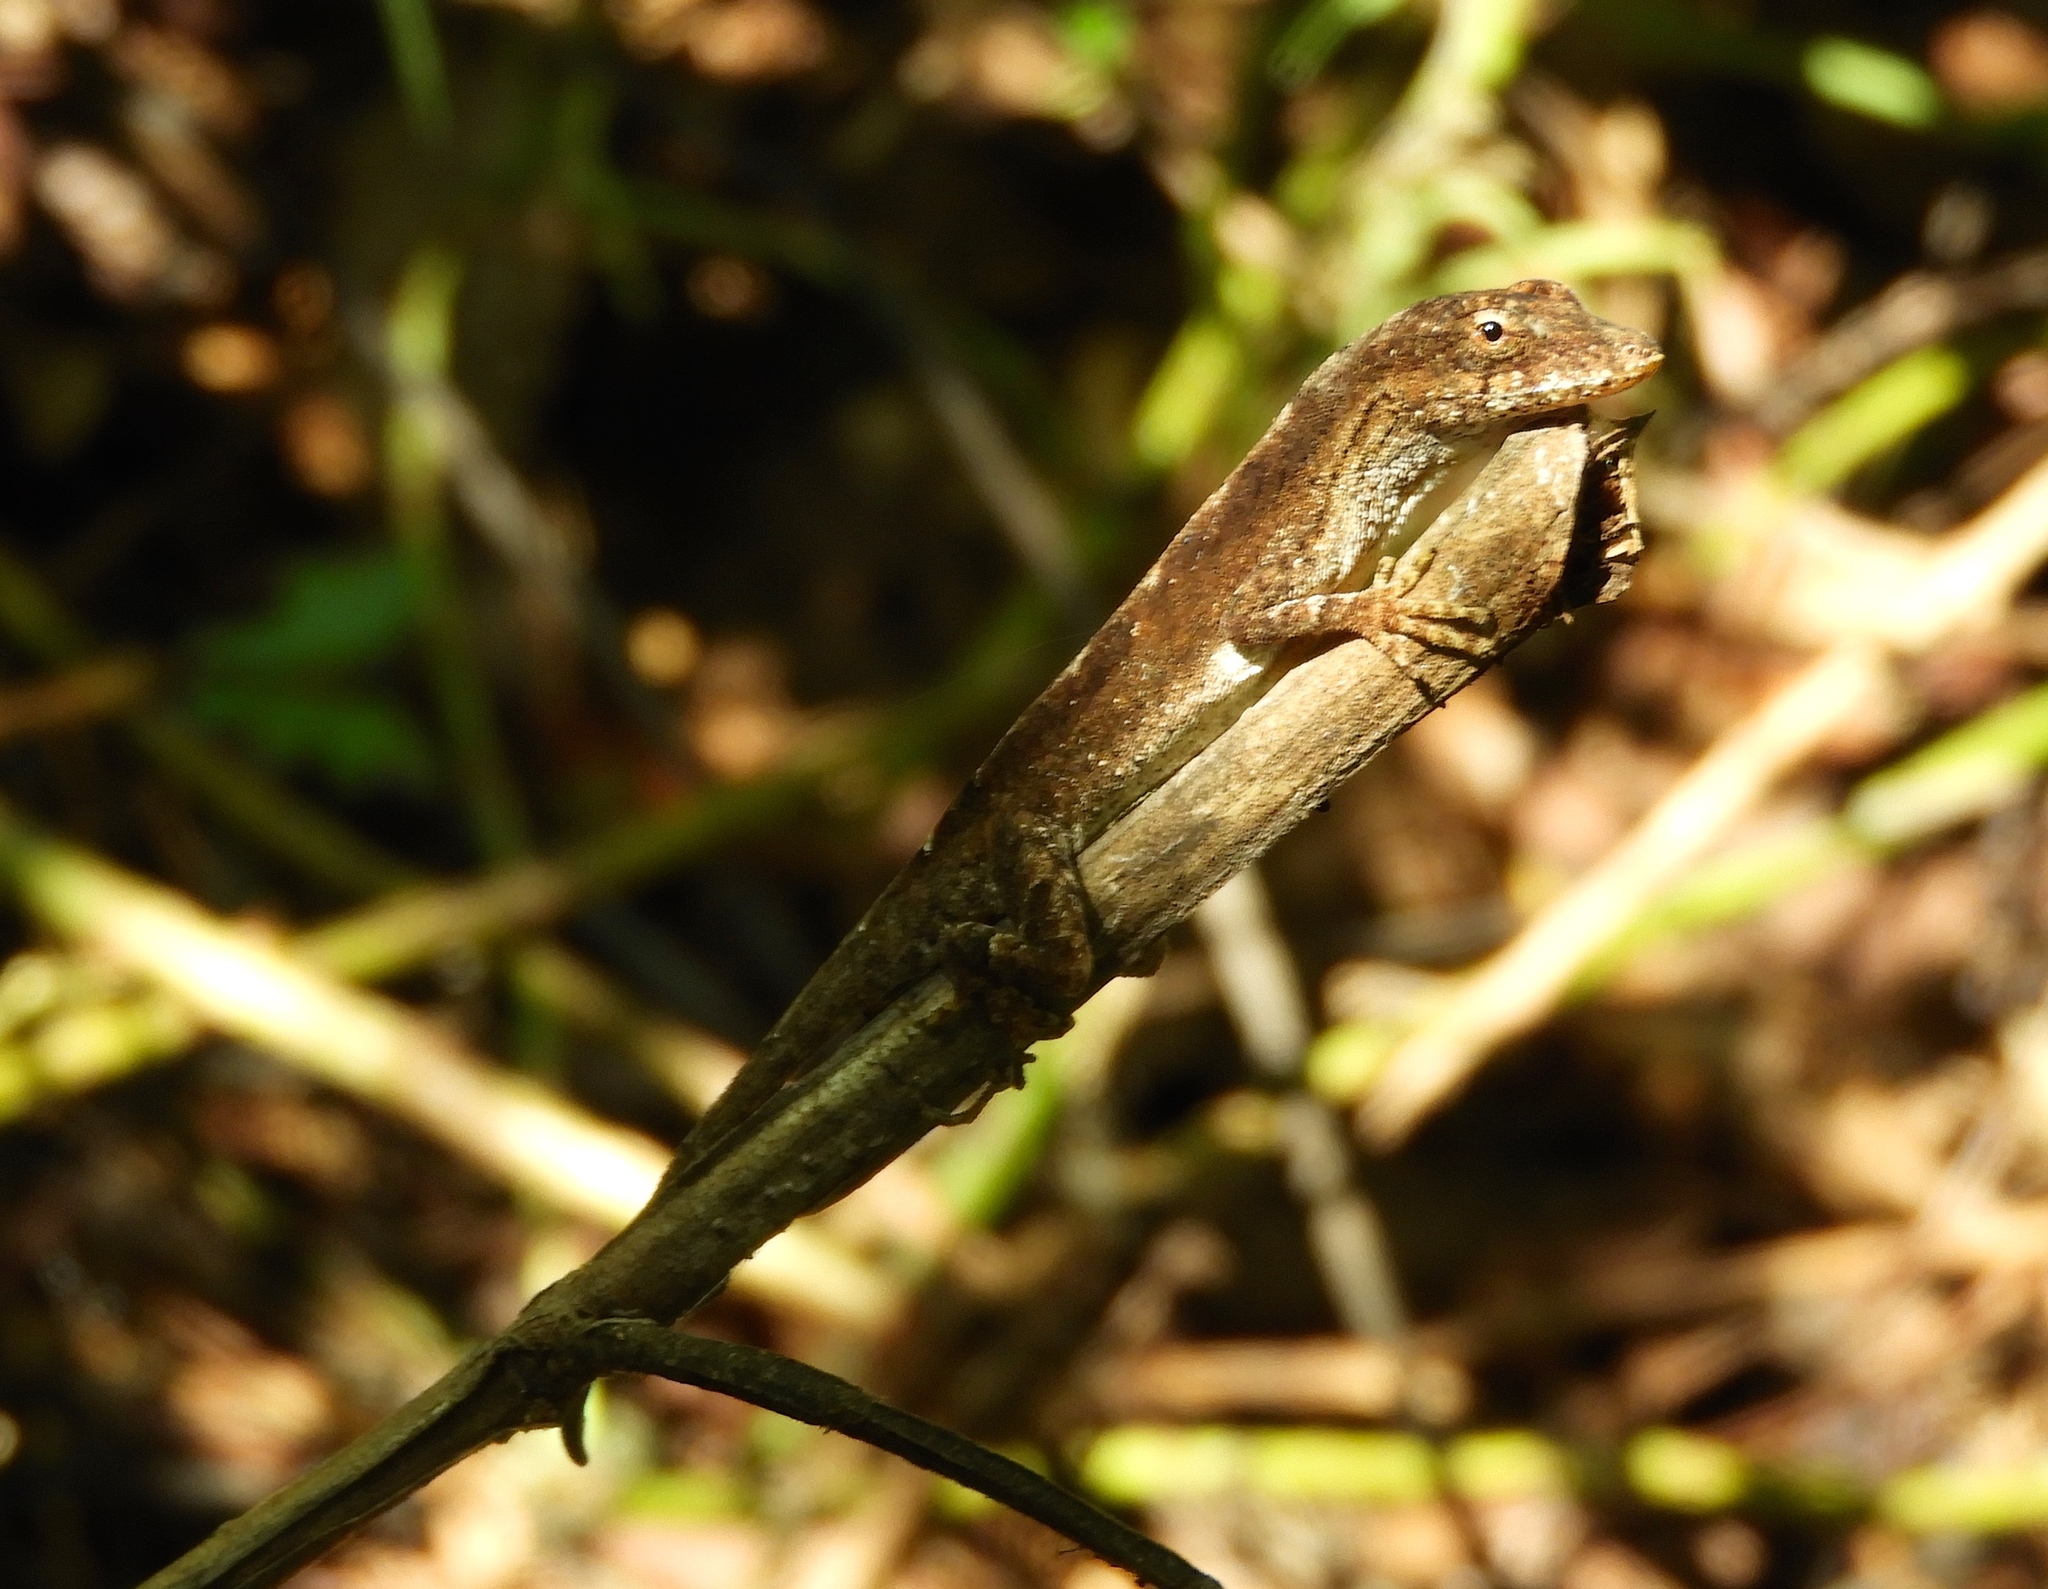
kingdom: Animalia
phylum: Chordata
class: Squamata
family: Dactyloidae
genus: Anolis
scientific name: Anolis nebulosus
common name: Clouded anole
